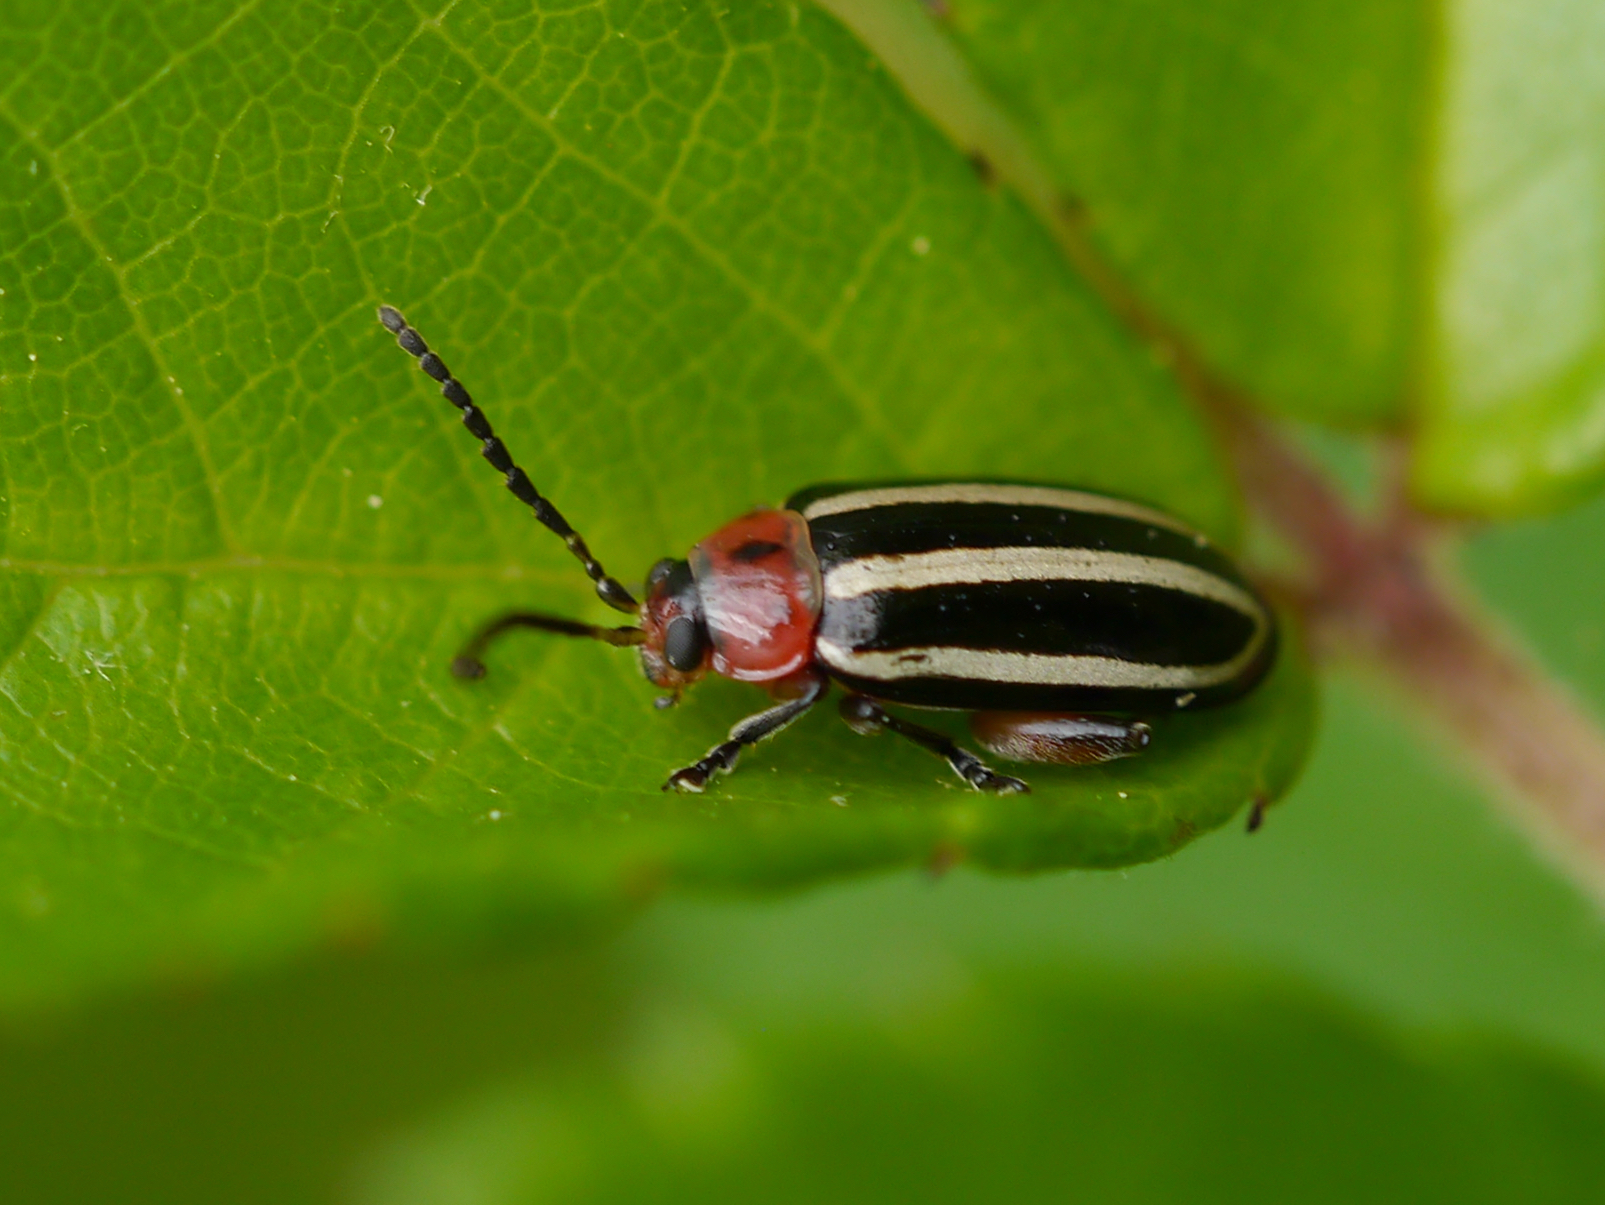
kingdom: Animalia
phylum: Arthropoda
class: Insecta
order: Coleoptera
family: Chrysomelidae
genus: Disonycha
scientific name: Disonycha glabrata
